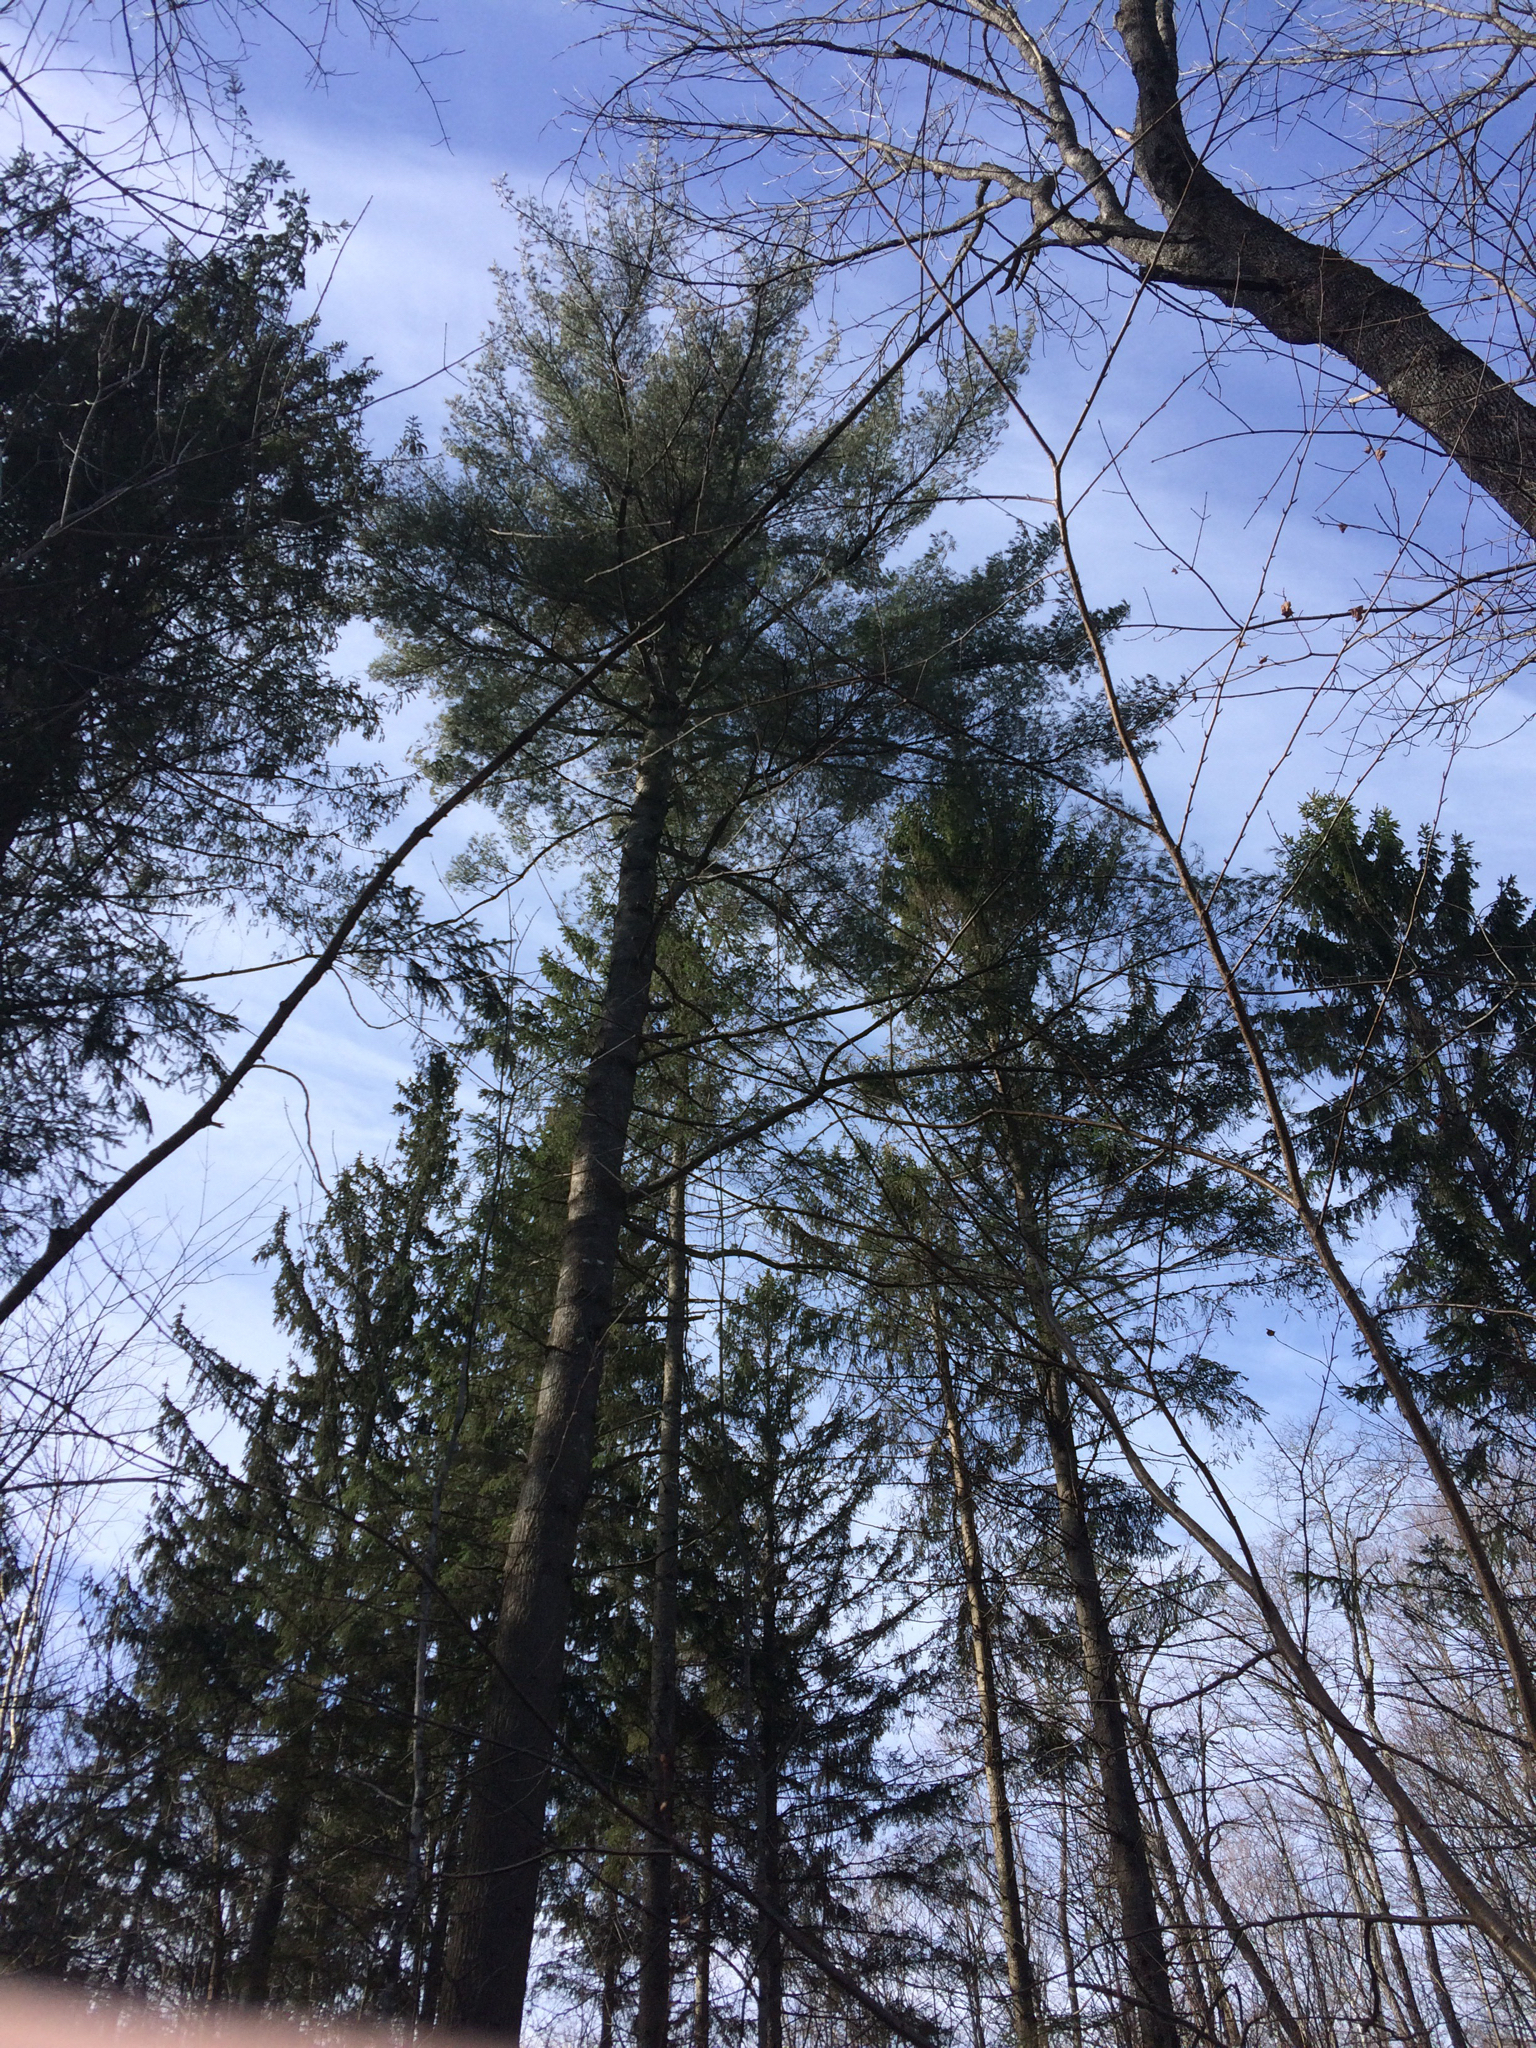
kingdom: Plantae
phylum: Tracheophyta
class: Pinopsida
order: Pinales
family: Pinaceae
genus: Pinus
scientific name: Pinus strobus
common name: Weymouth pine
